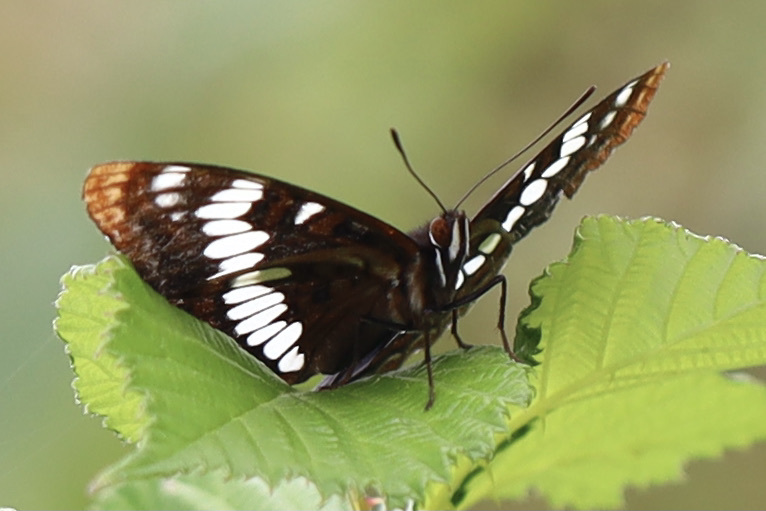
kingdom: Animalia
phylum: Arthropoda
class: Insecta
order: Lepidoptera
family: Nymphalidae
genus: Limenitis
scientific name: Limenitis lorquini
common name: Lorquin's admiral
